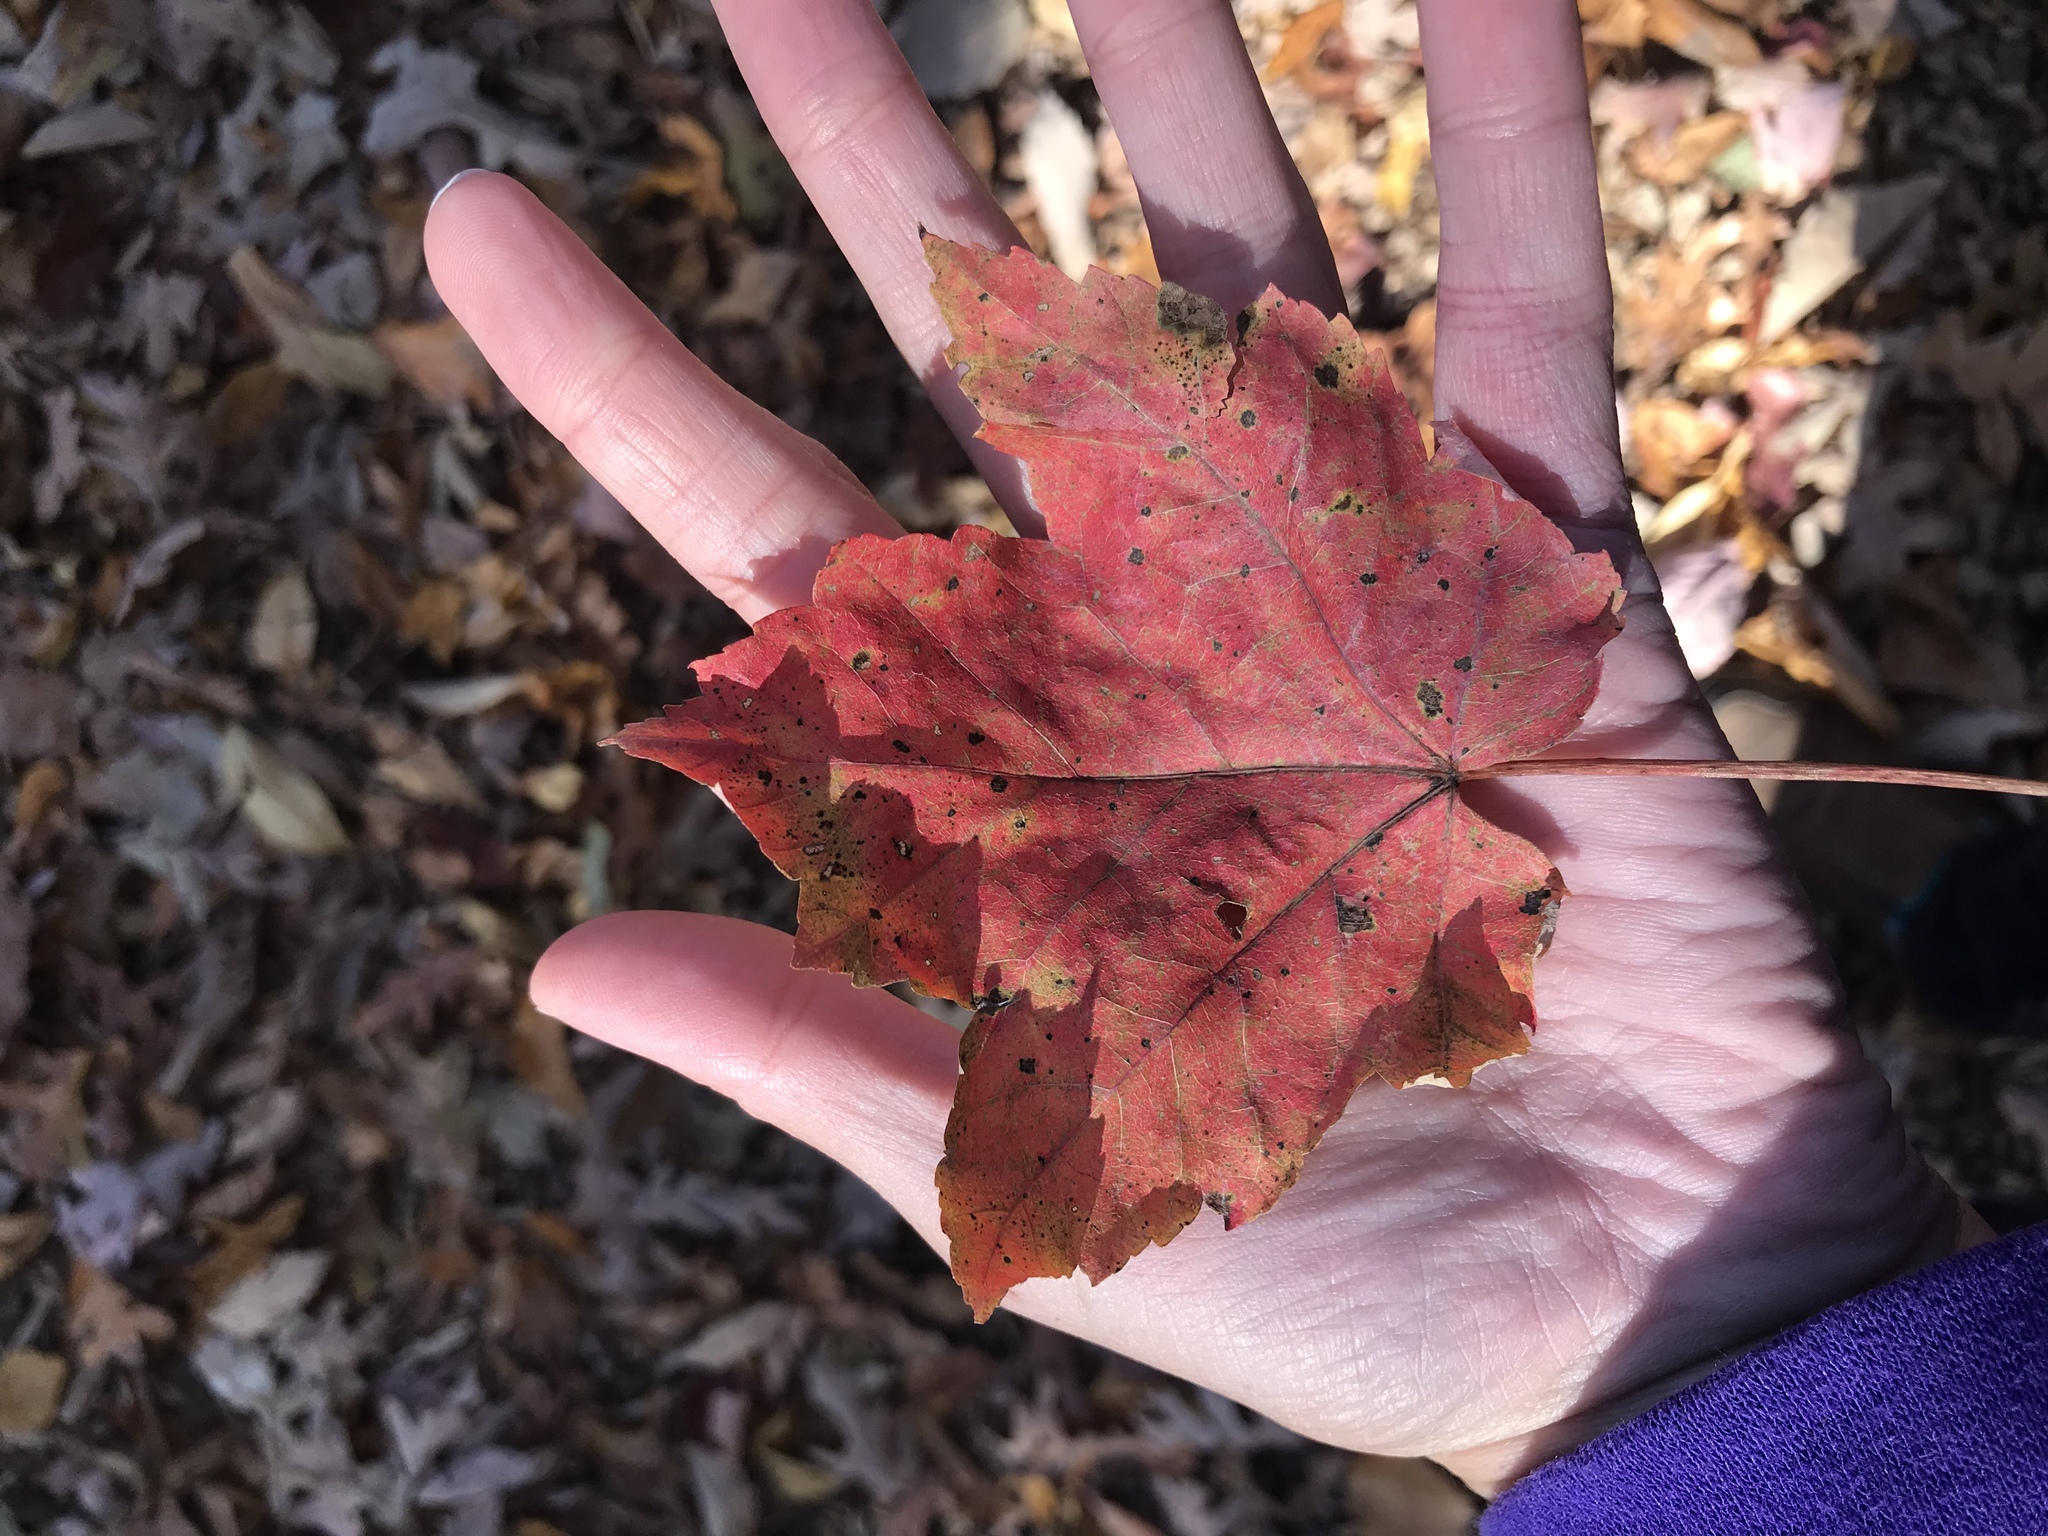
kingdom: Plantae
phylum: Tracheophyta
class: Magnoliopsida
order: Sapindales
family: Sapindaceae
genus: Acer
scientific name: Acer rubrum
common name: Red maple
